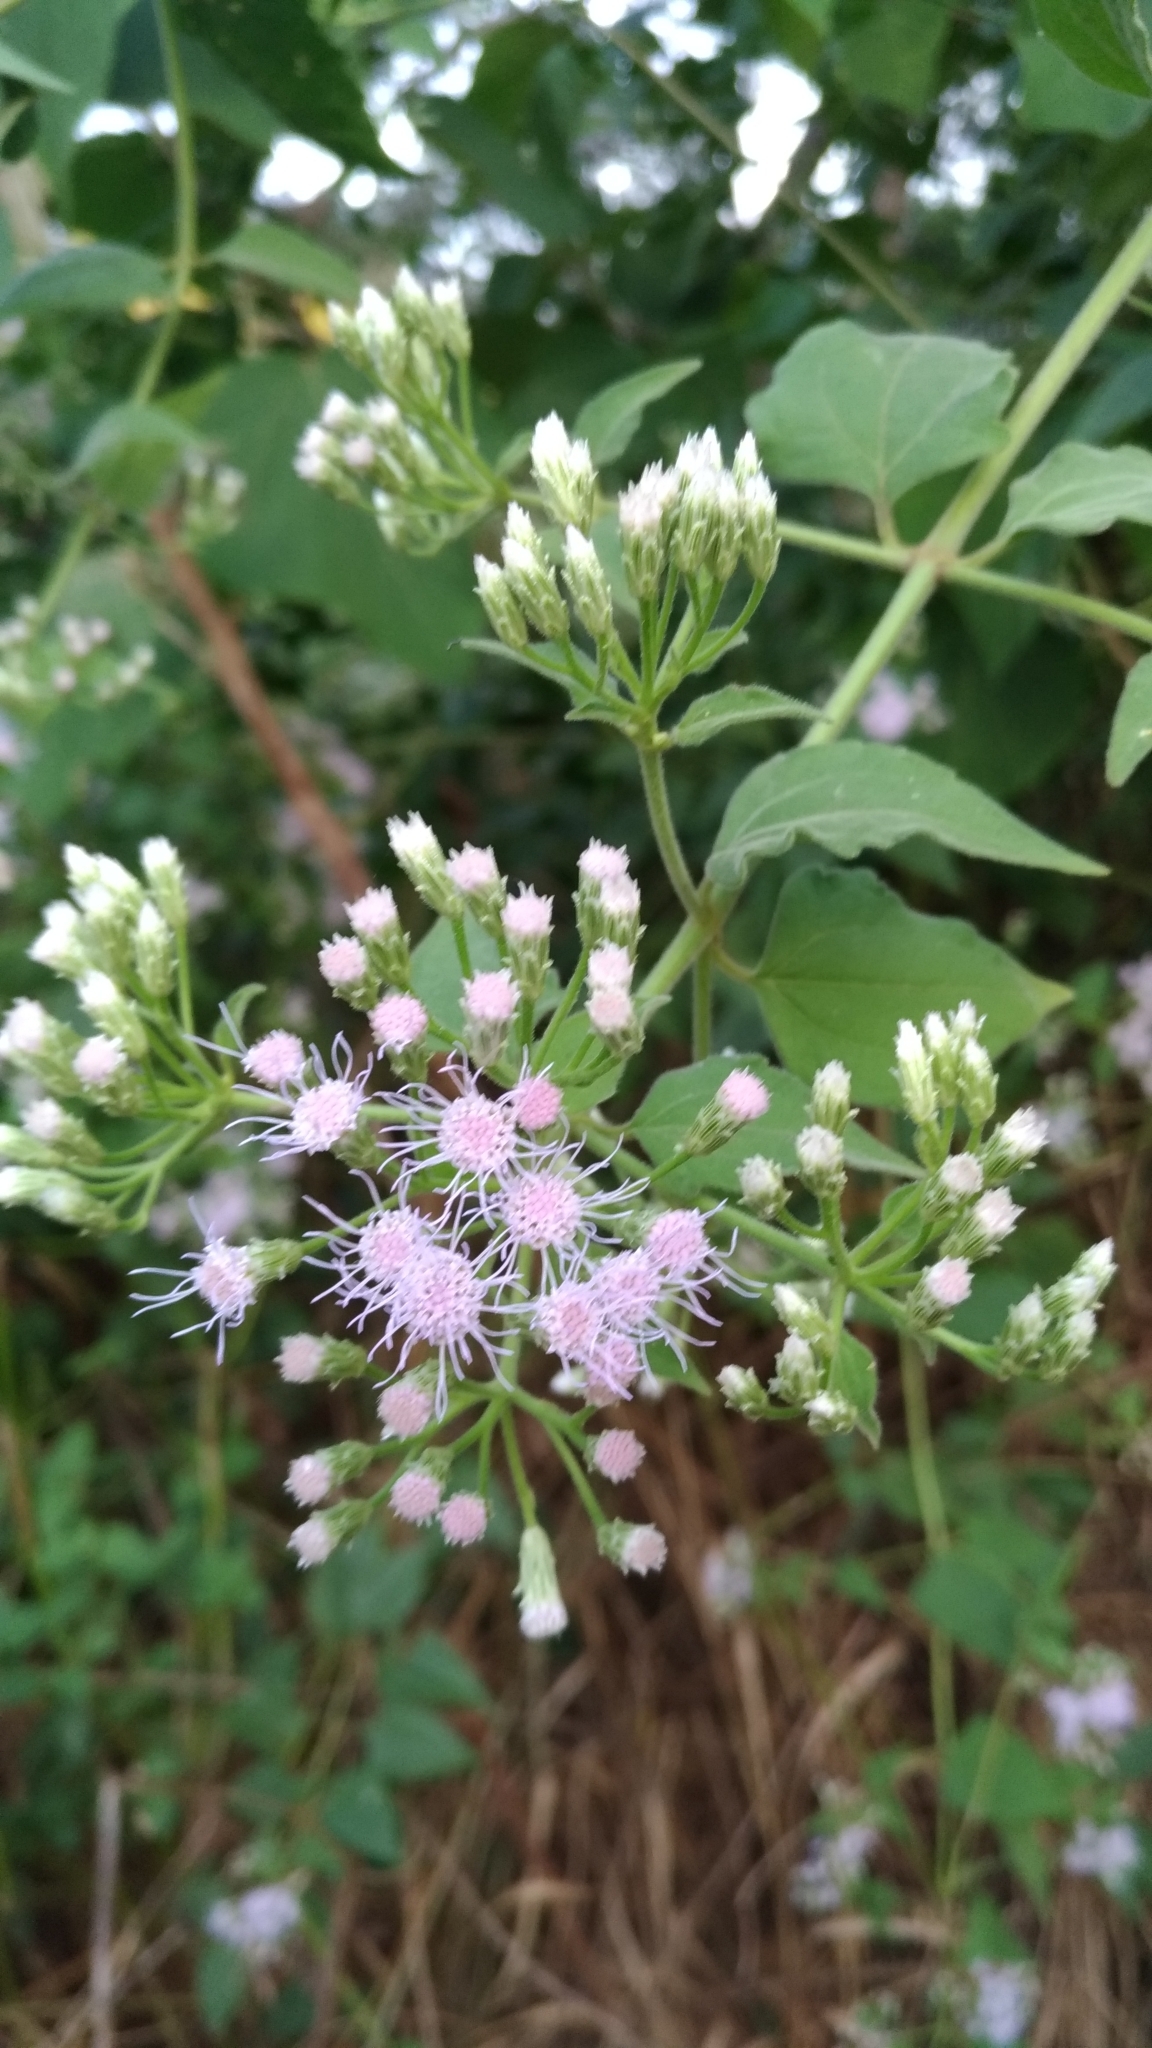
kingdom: Plantae
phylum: Tracheophyta
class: Magnoliopsida
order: Asterales
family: Asteraceae
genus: Chromolaena
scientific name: Chromolaena odorata
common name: Siamweed
